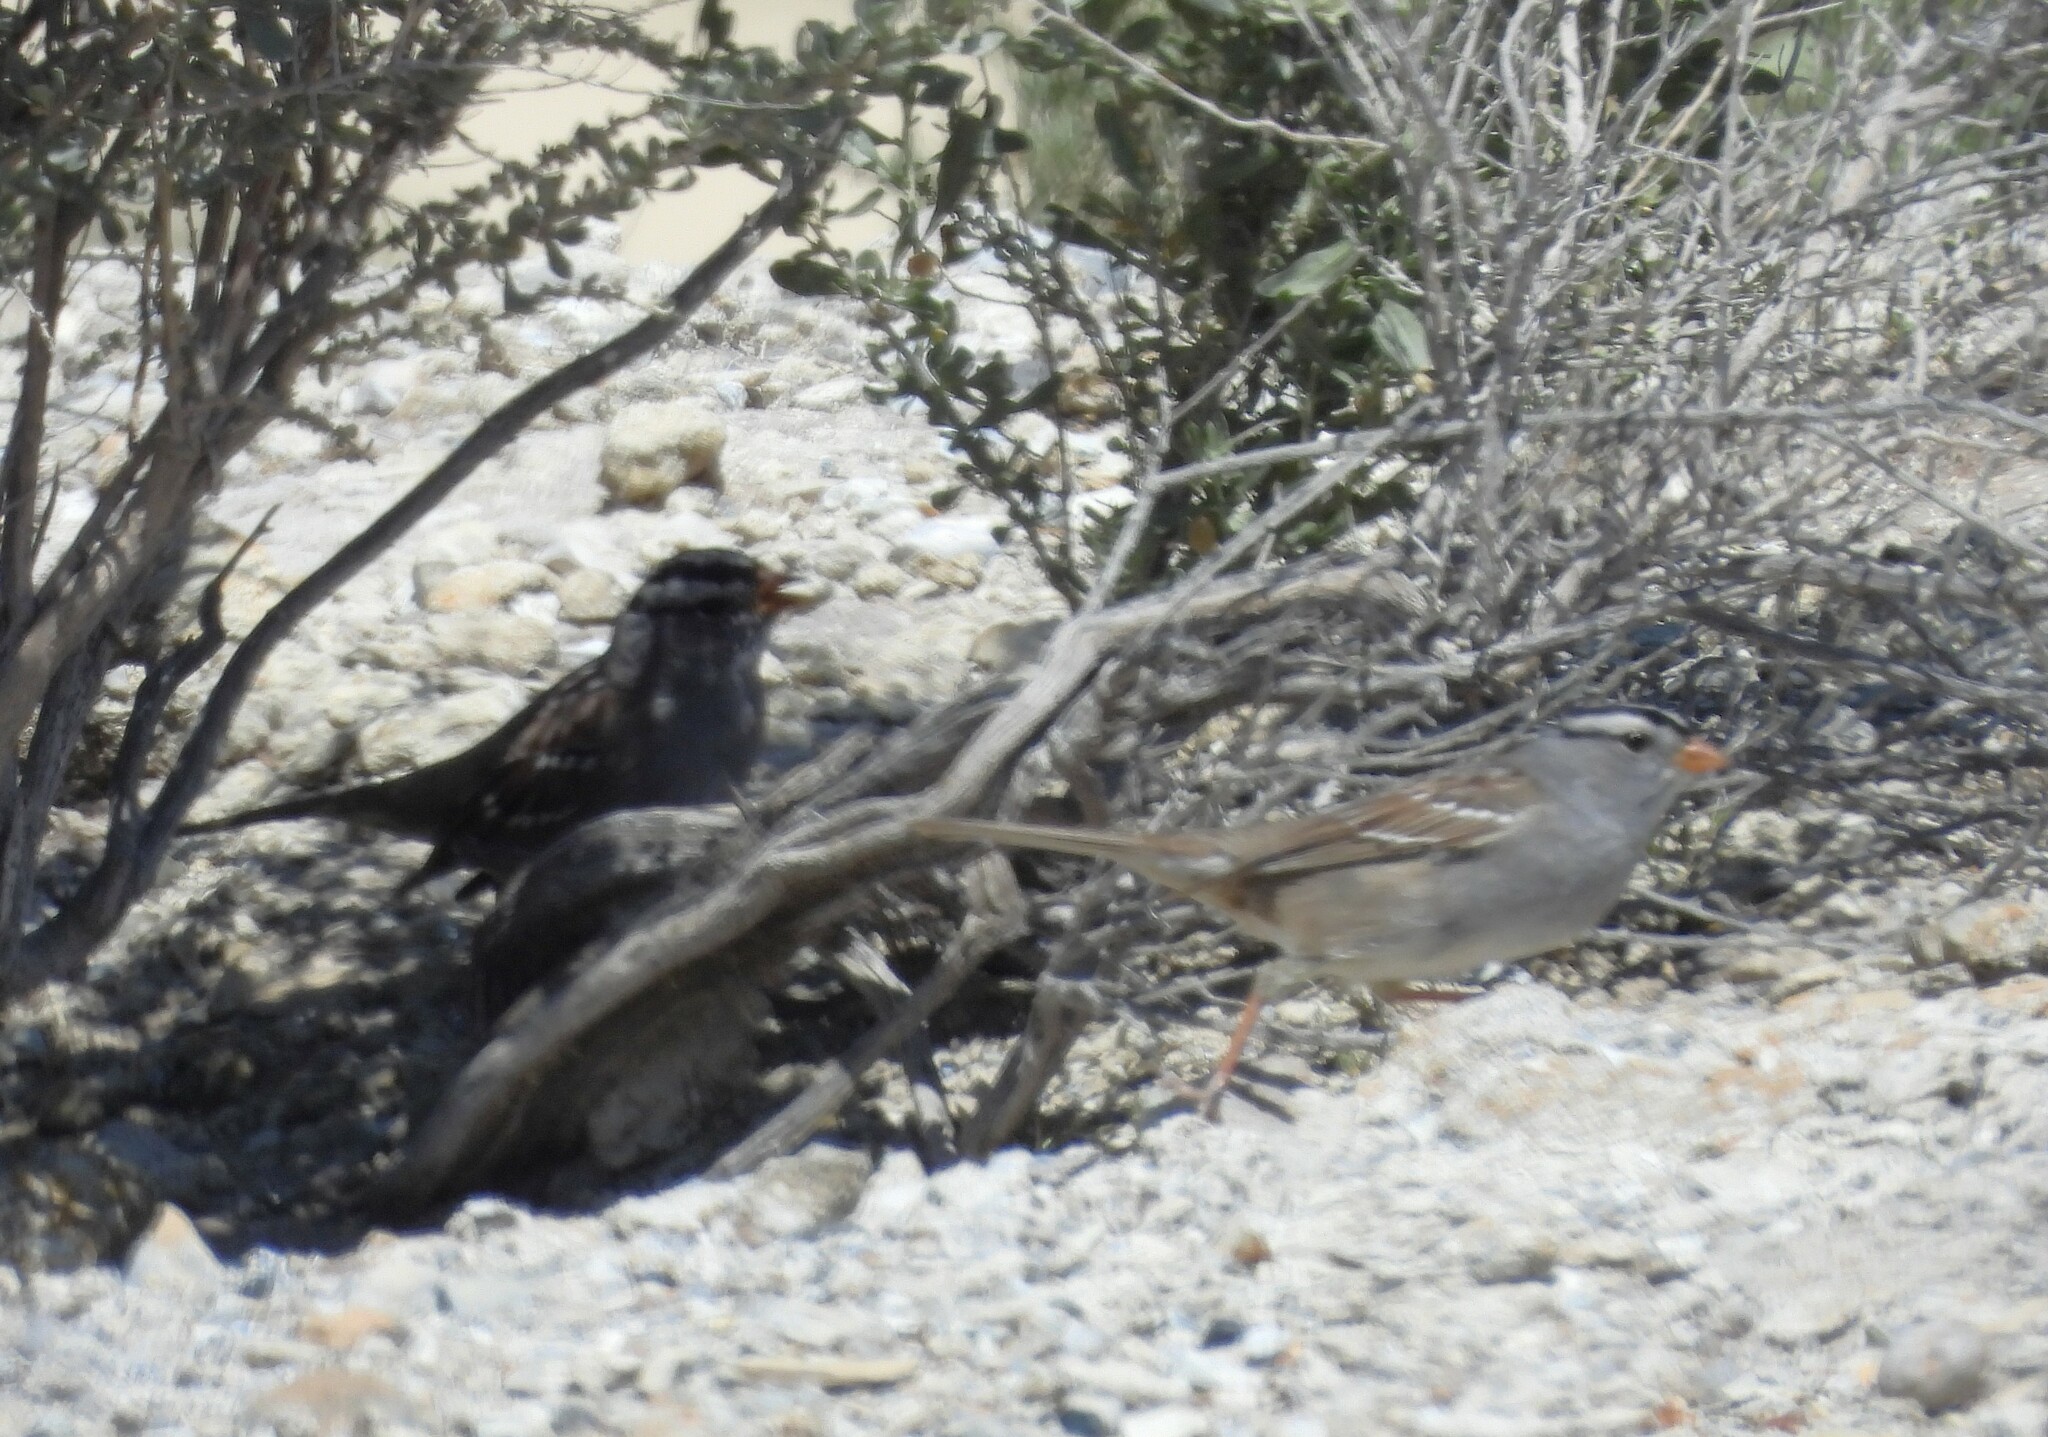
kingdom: Animalia
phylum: Chordata
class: Aves
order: Passeriformes
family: Passerellidae
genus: Zonotrichia
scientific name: Zonotrichia leucophrys
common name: White-crowned sparrow
